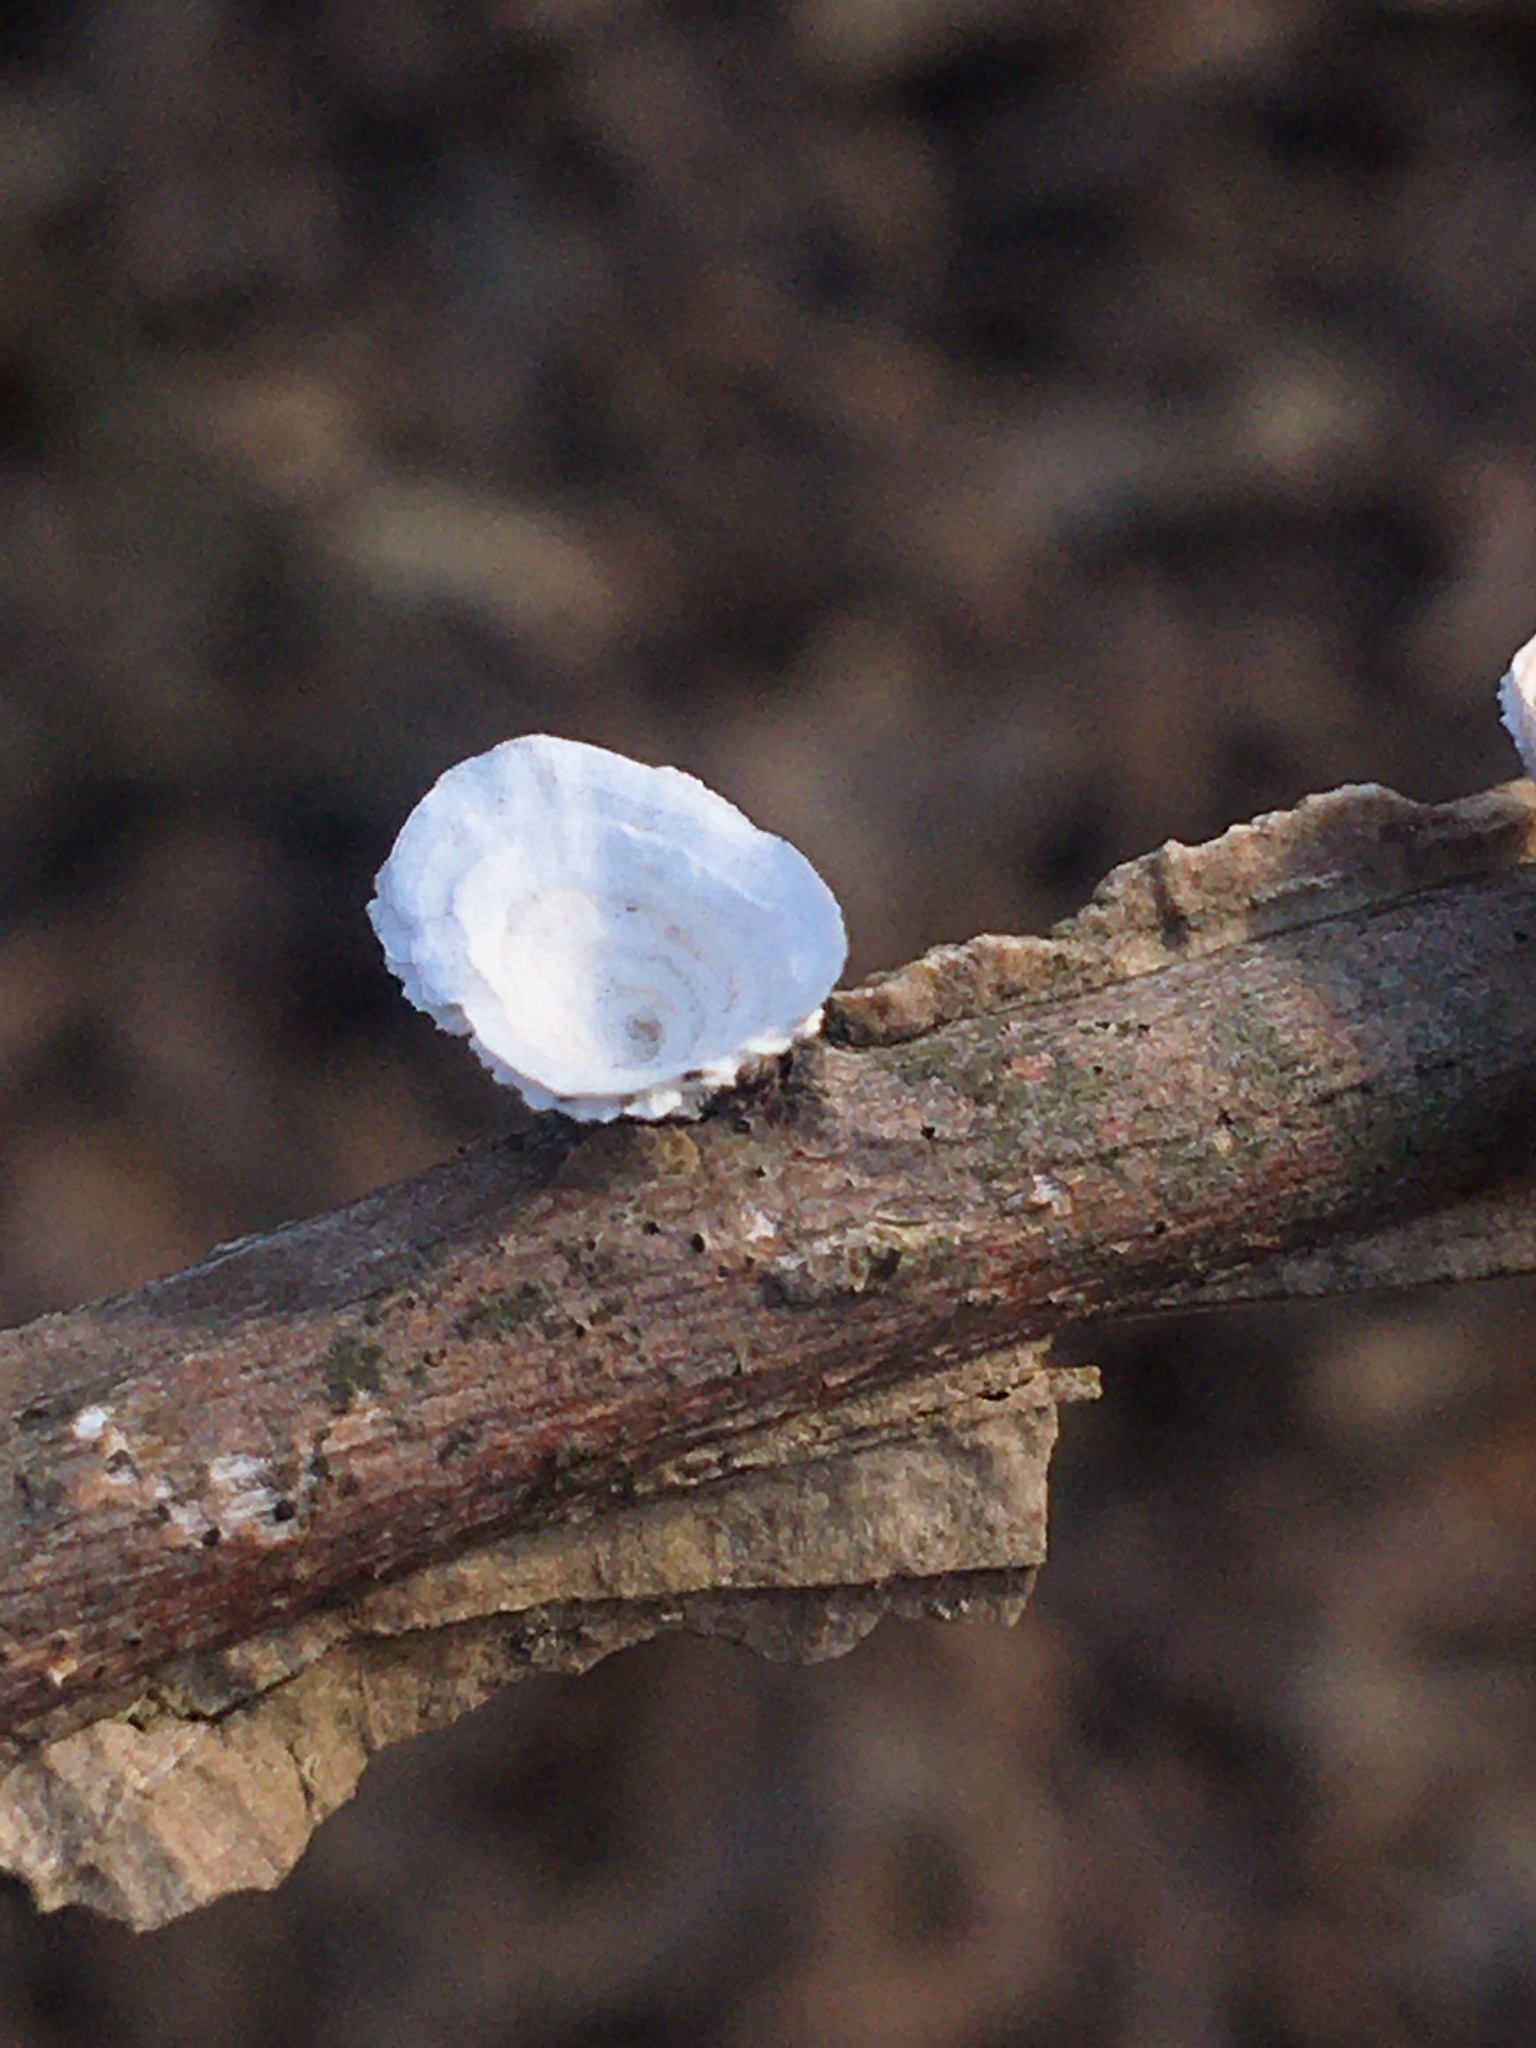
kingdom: Fungi
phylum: Basidiomycota
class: Agaricomycetes
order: Polyporales
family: Polyporaceae
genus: Poronidulus
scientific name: Poronidulus conchifer
